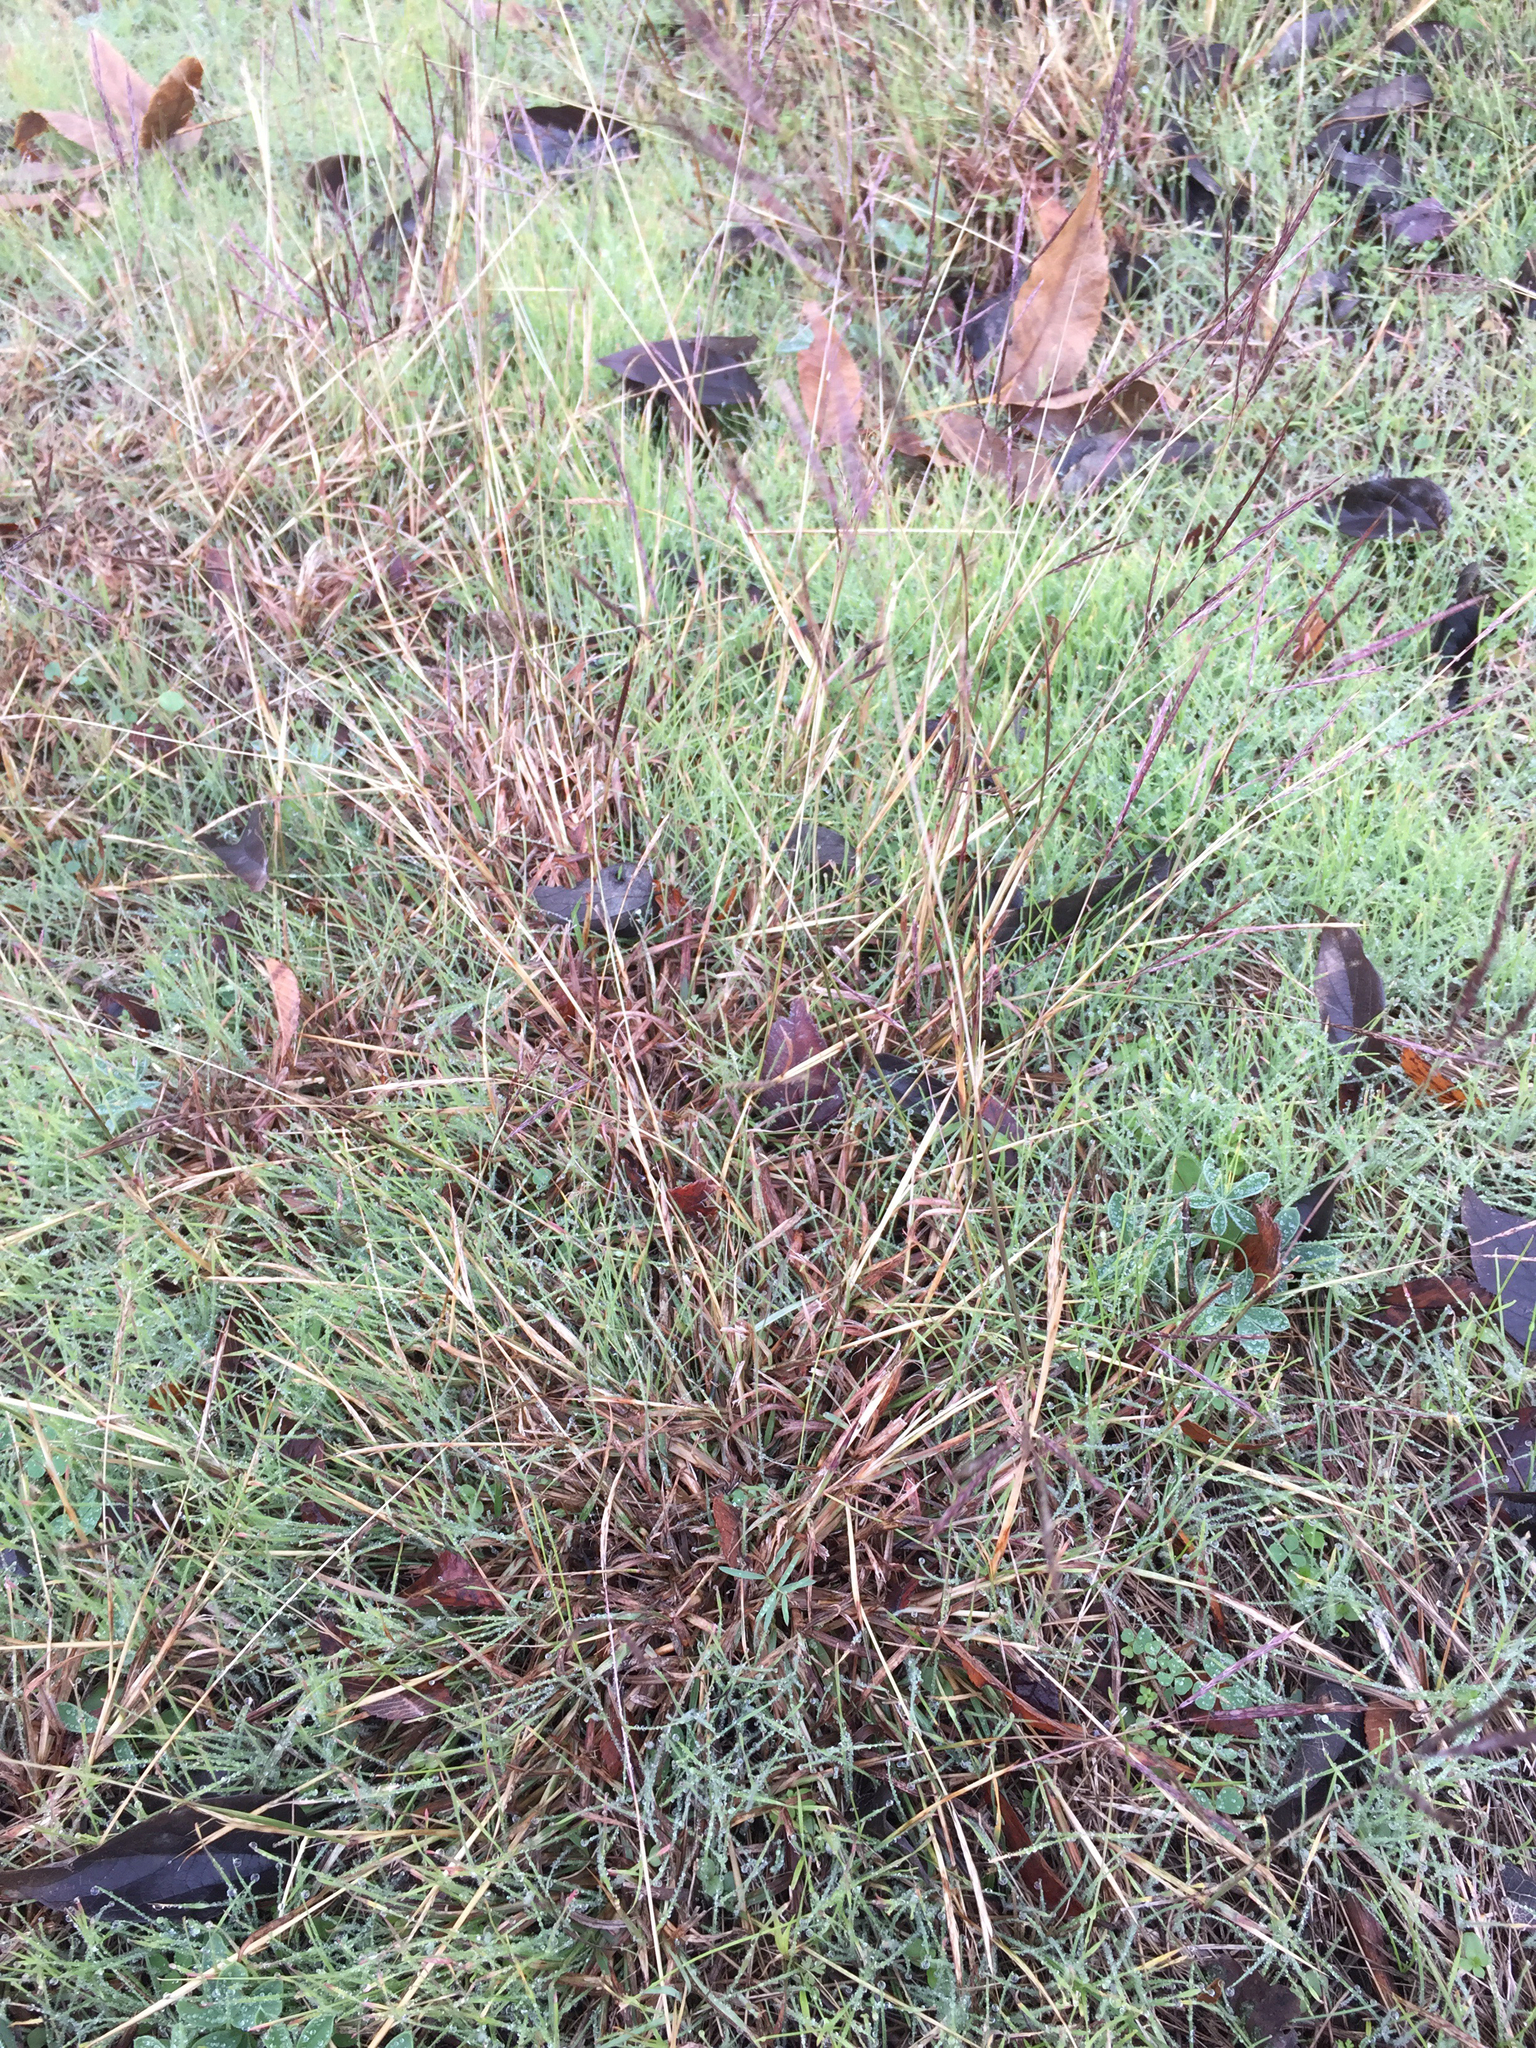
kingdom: Plantae
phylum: Tracheophyta
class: Liliopsida
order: Poales
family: Poaceae
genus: Bothriochloa
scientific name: Bothriochloa ischaemum
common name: Yellow bluestem
